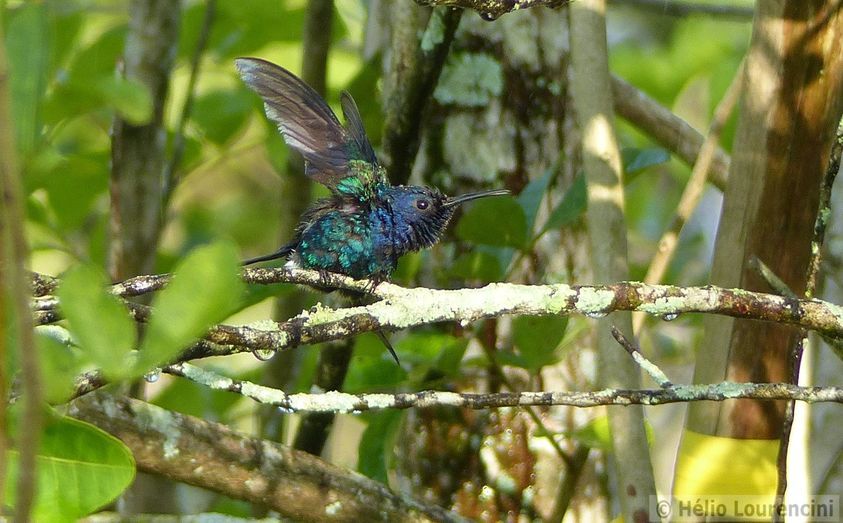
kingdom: Animalia
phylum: Chordata
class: Aves
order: Apodiformes
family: Trochilidae
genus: Eupetomena
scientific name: Eupetomena macroura
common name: Swallow-tailed hummingbird
